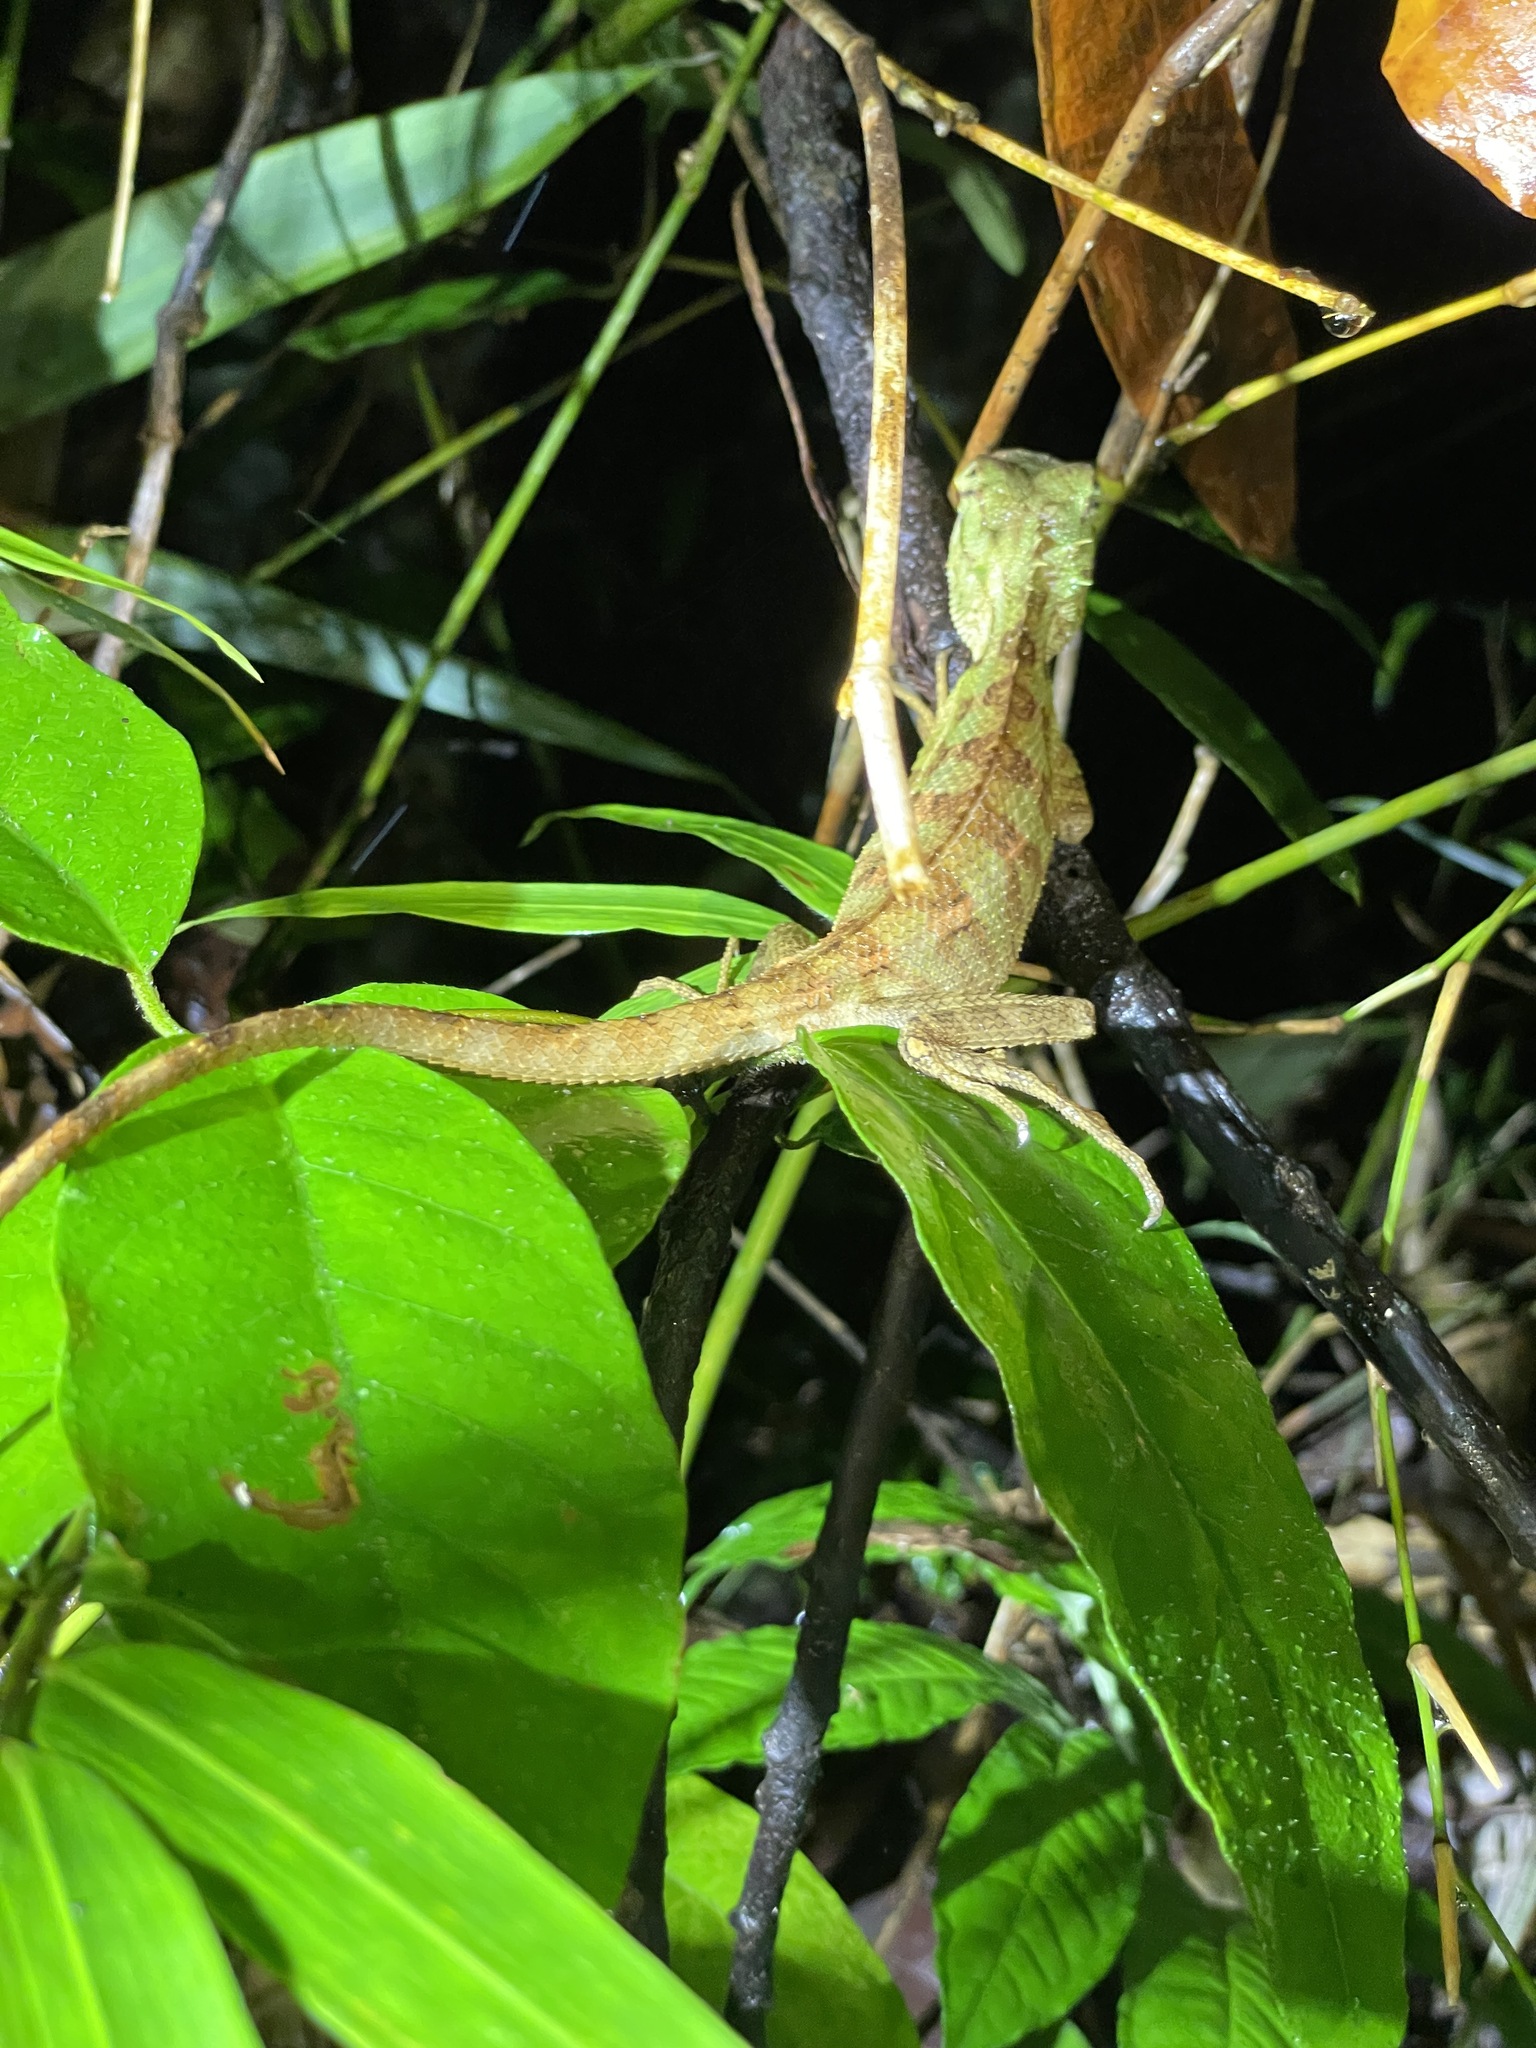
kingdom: Animalia
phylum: Chordata
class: Squamata
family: Agamidae
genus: Calotes
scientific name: Calotes emma
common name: Thailand bloodsucker
